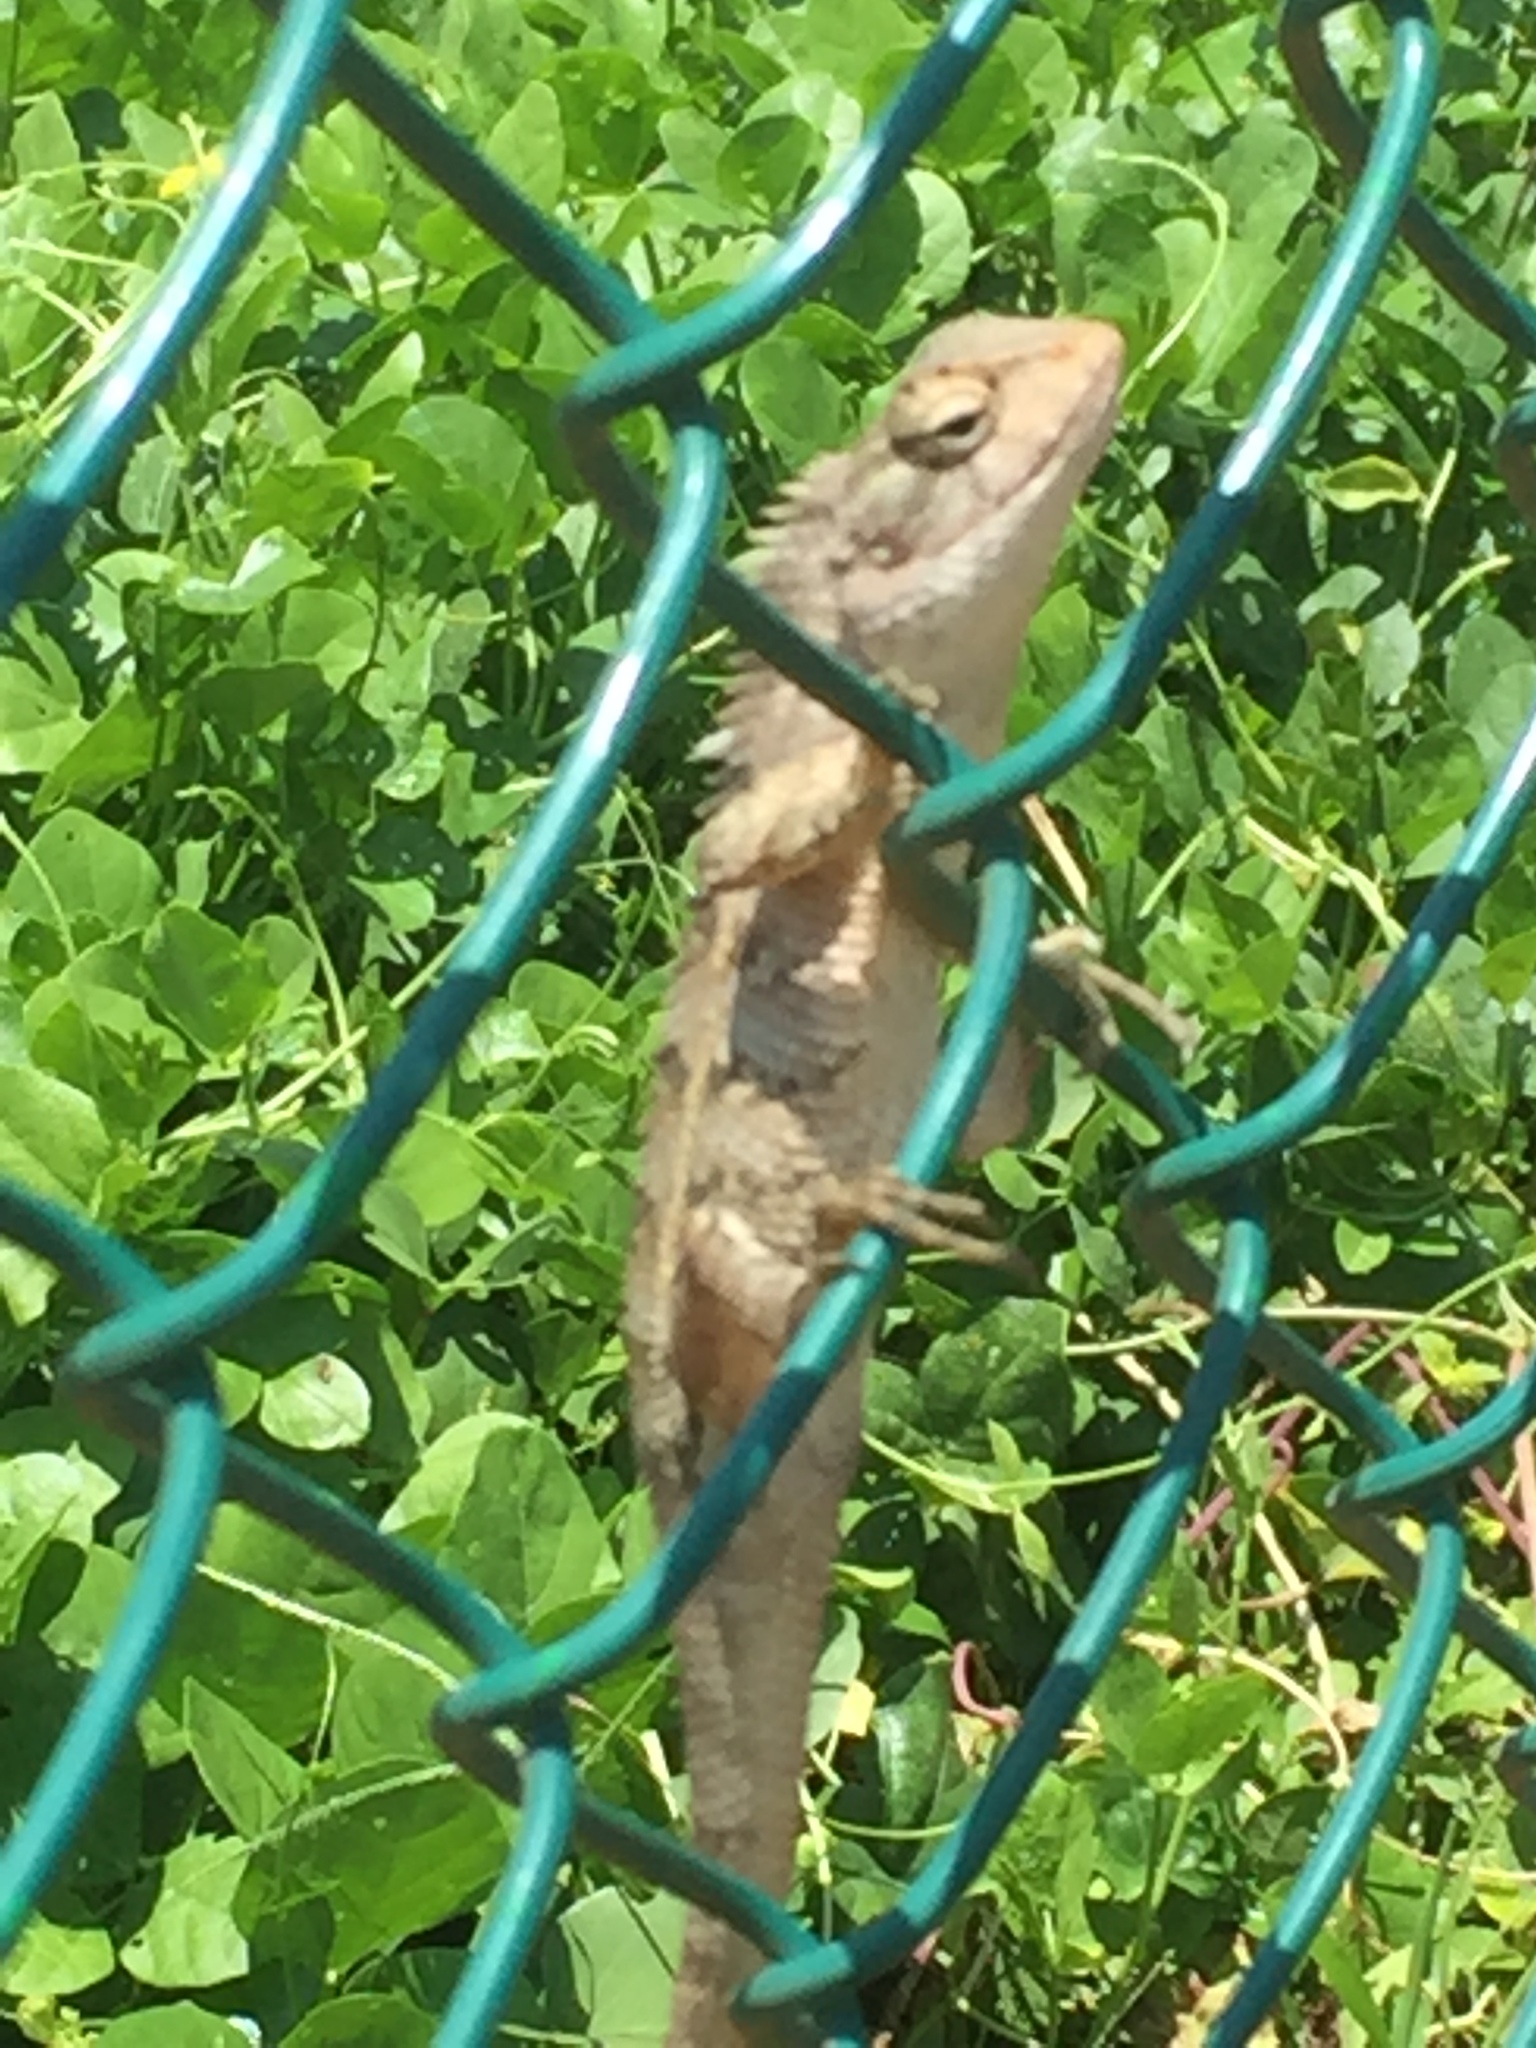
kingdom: Animalia
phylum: Chordata
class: Squamata
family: Agamidae
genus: Calotes
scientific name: Calotes versicolor
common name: Oriental garden lizard
